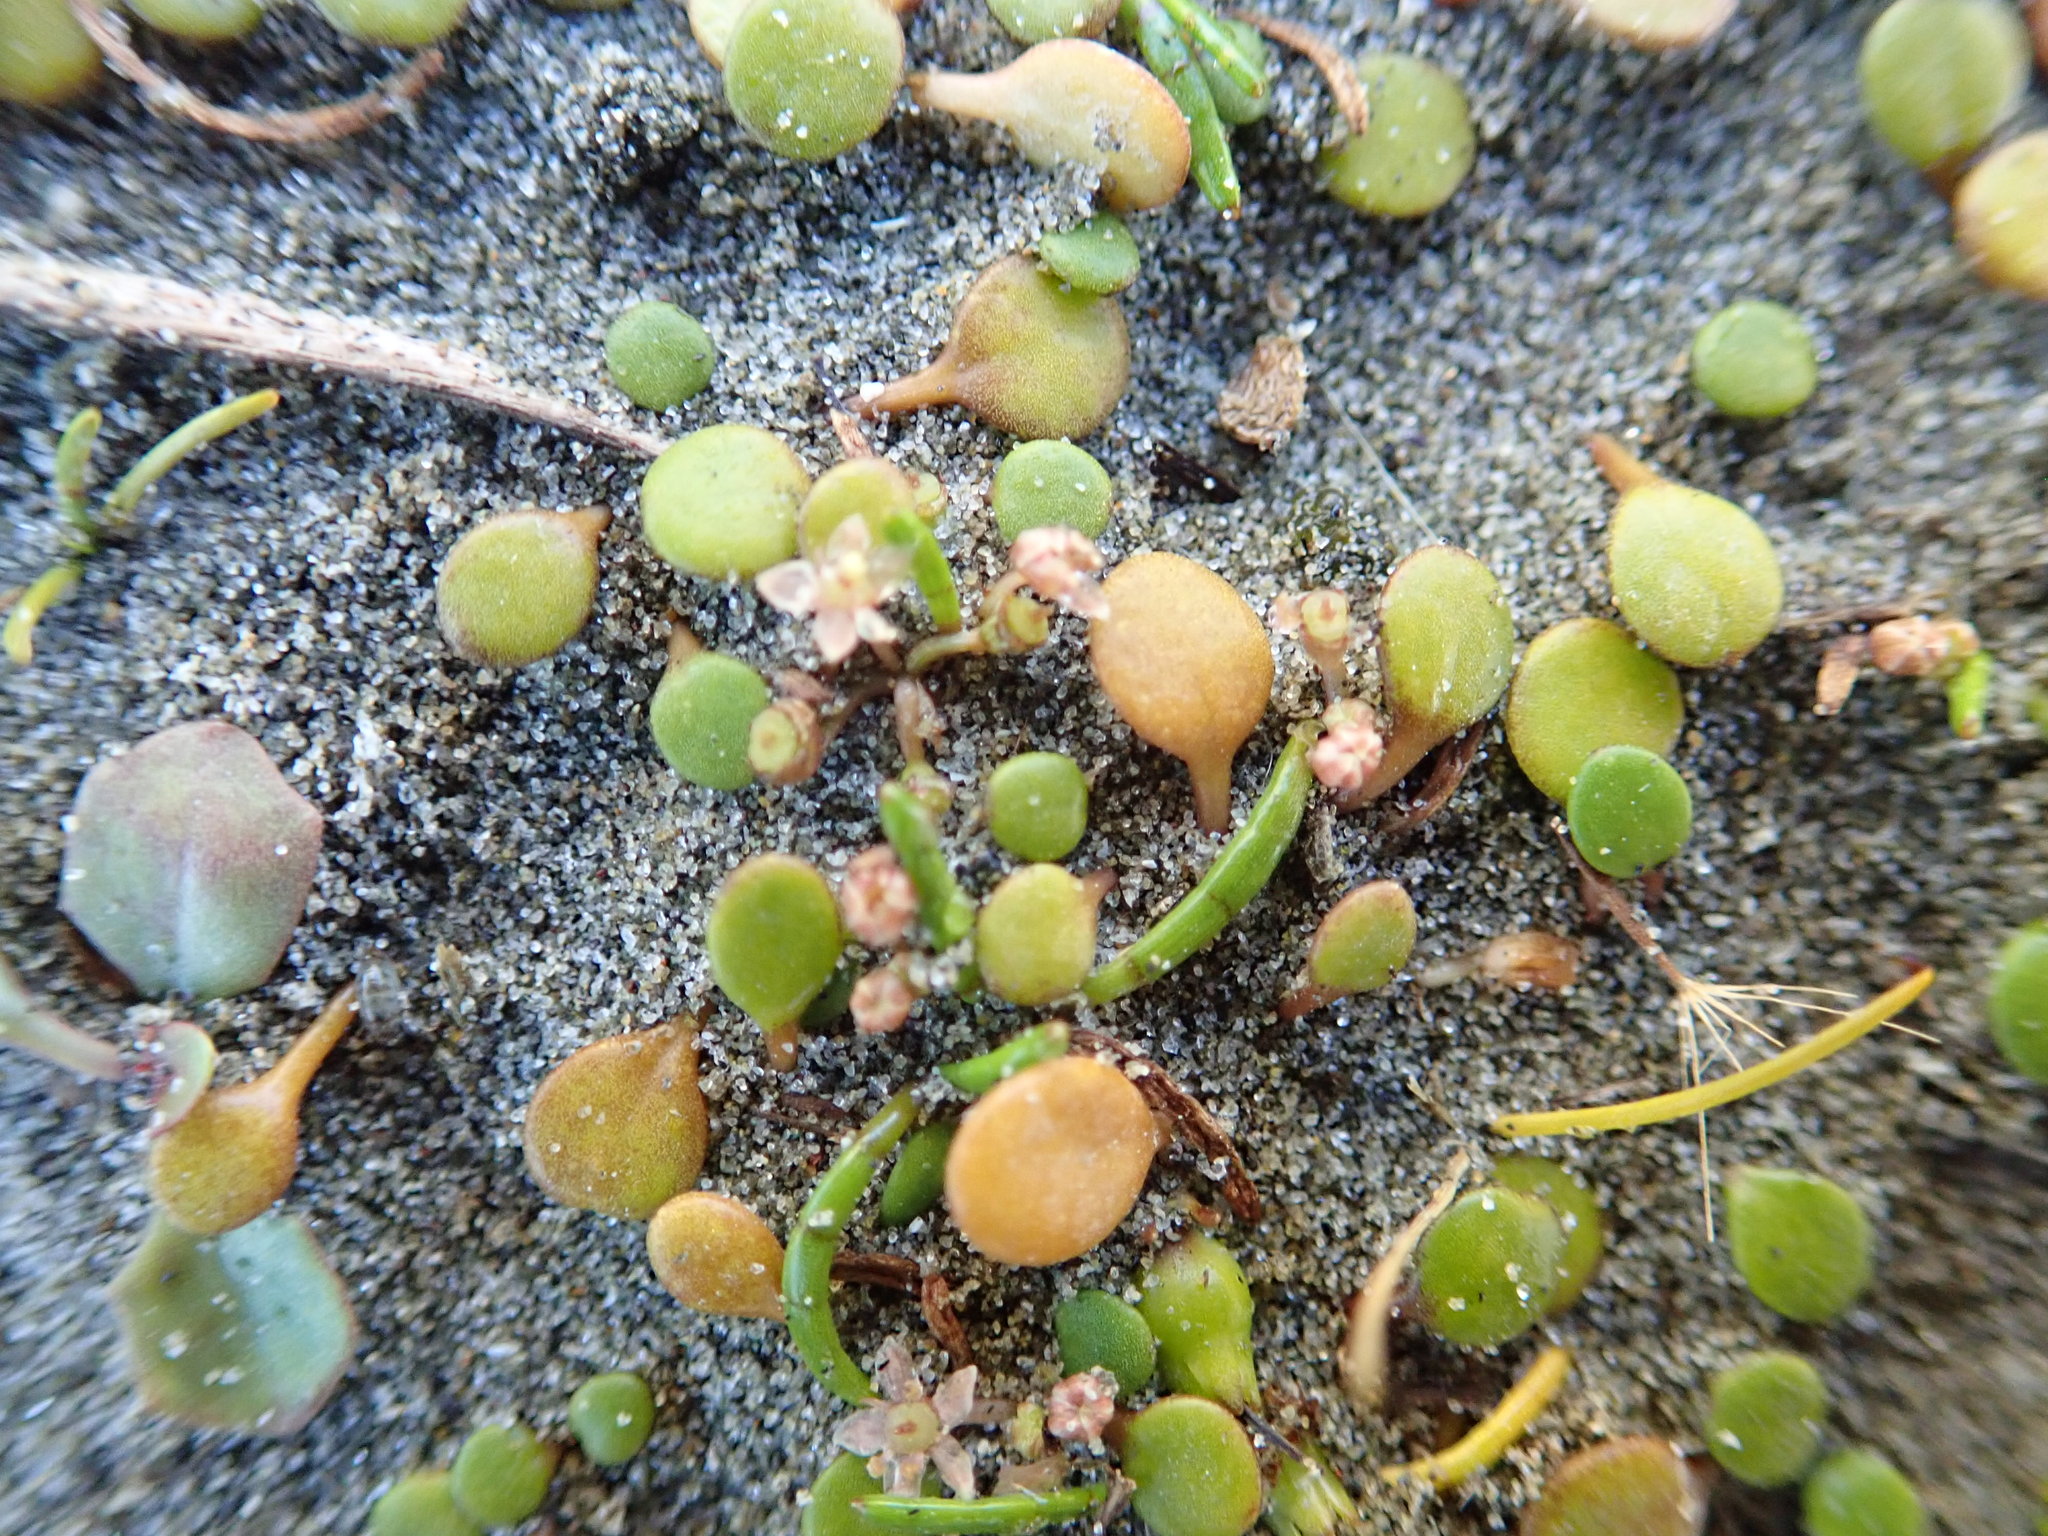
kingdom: Plantae
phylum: Tracheophyta
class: Magnoliopsida
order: Apiales
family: Apiaceae
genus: Lilaeopsis
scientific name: Lilaeopsis novae-zelandiae
